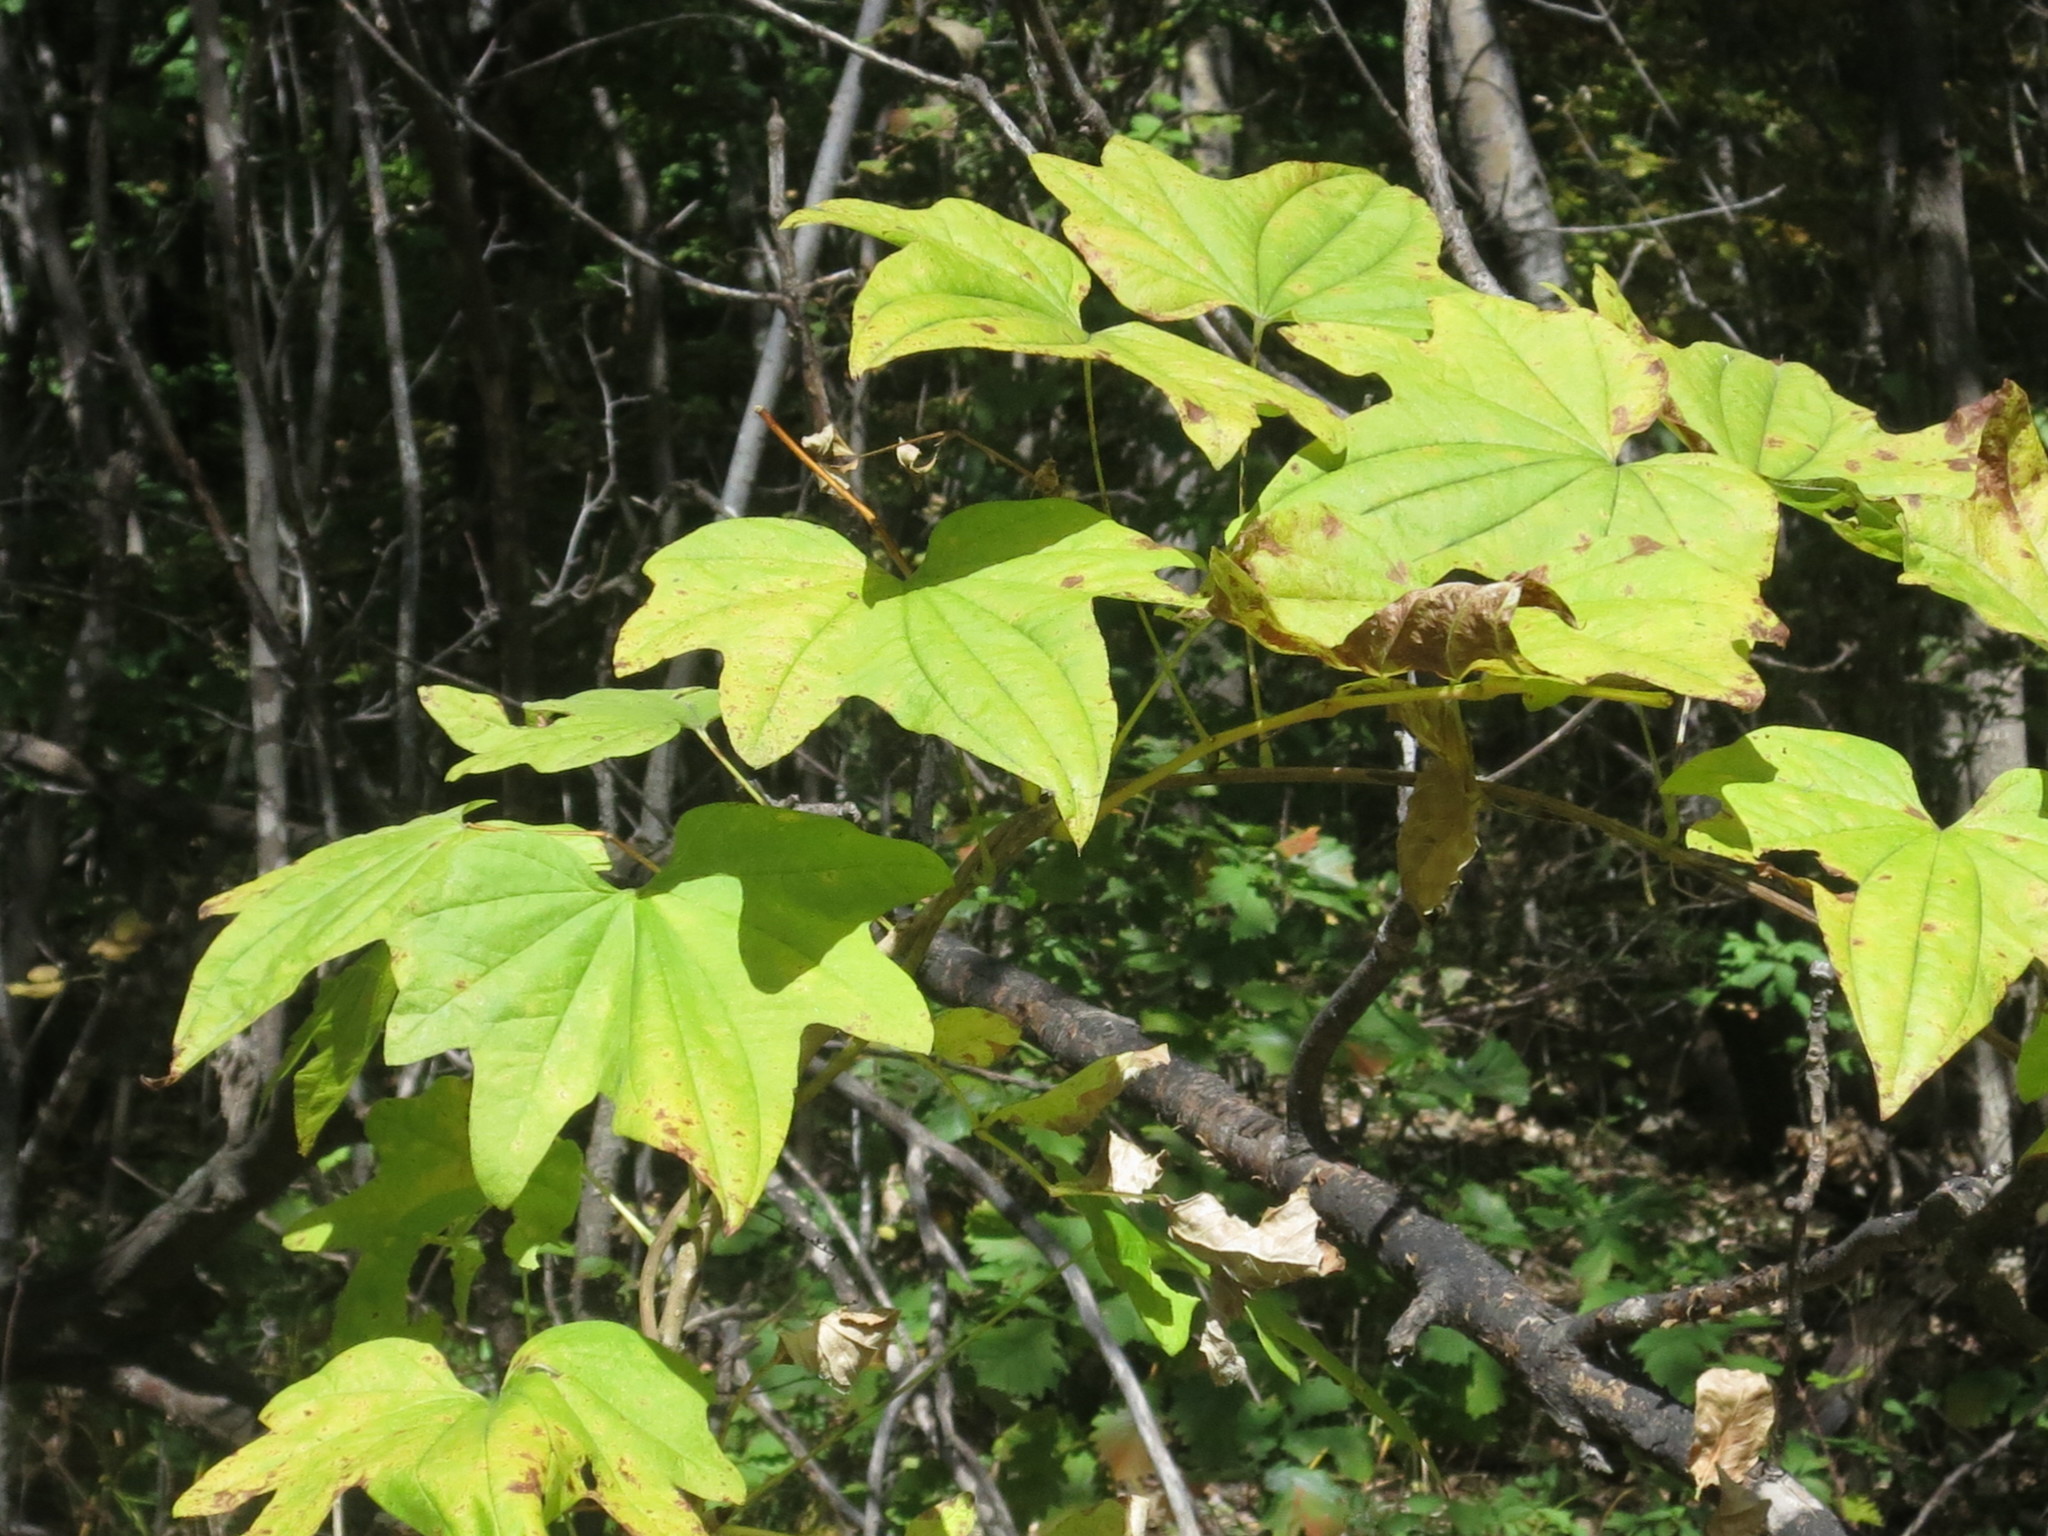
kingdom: Plantae
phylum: Tracheophyta
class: Liliopsida
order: Dioscoreales
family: Dioscoreaceae
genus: Dioscorea
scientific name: Dioscorea nipponica
